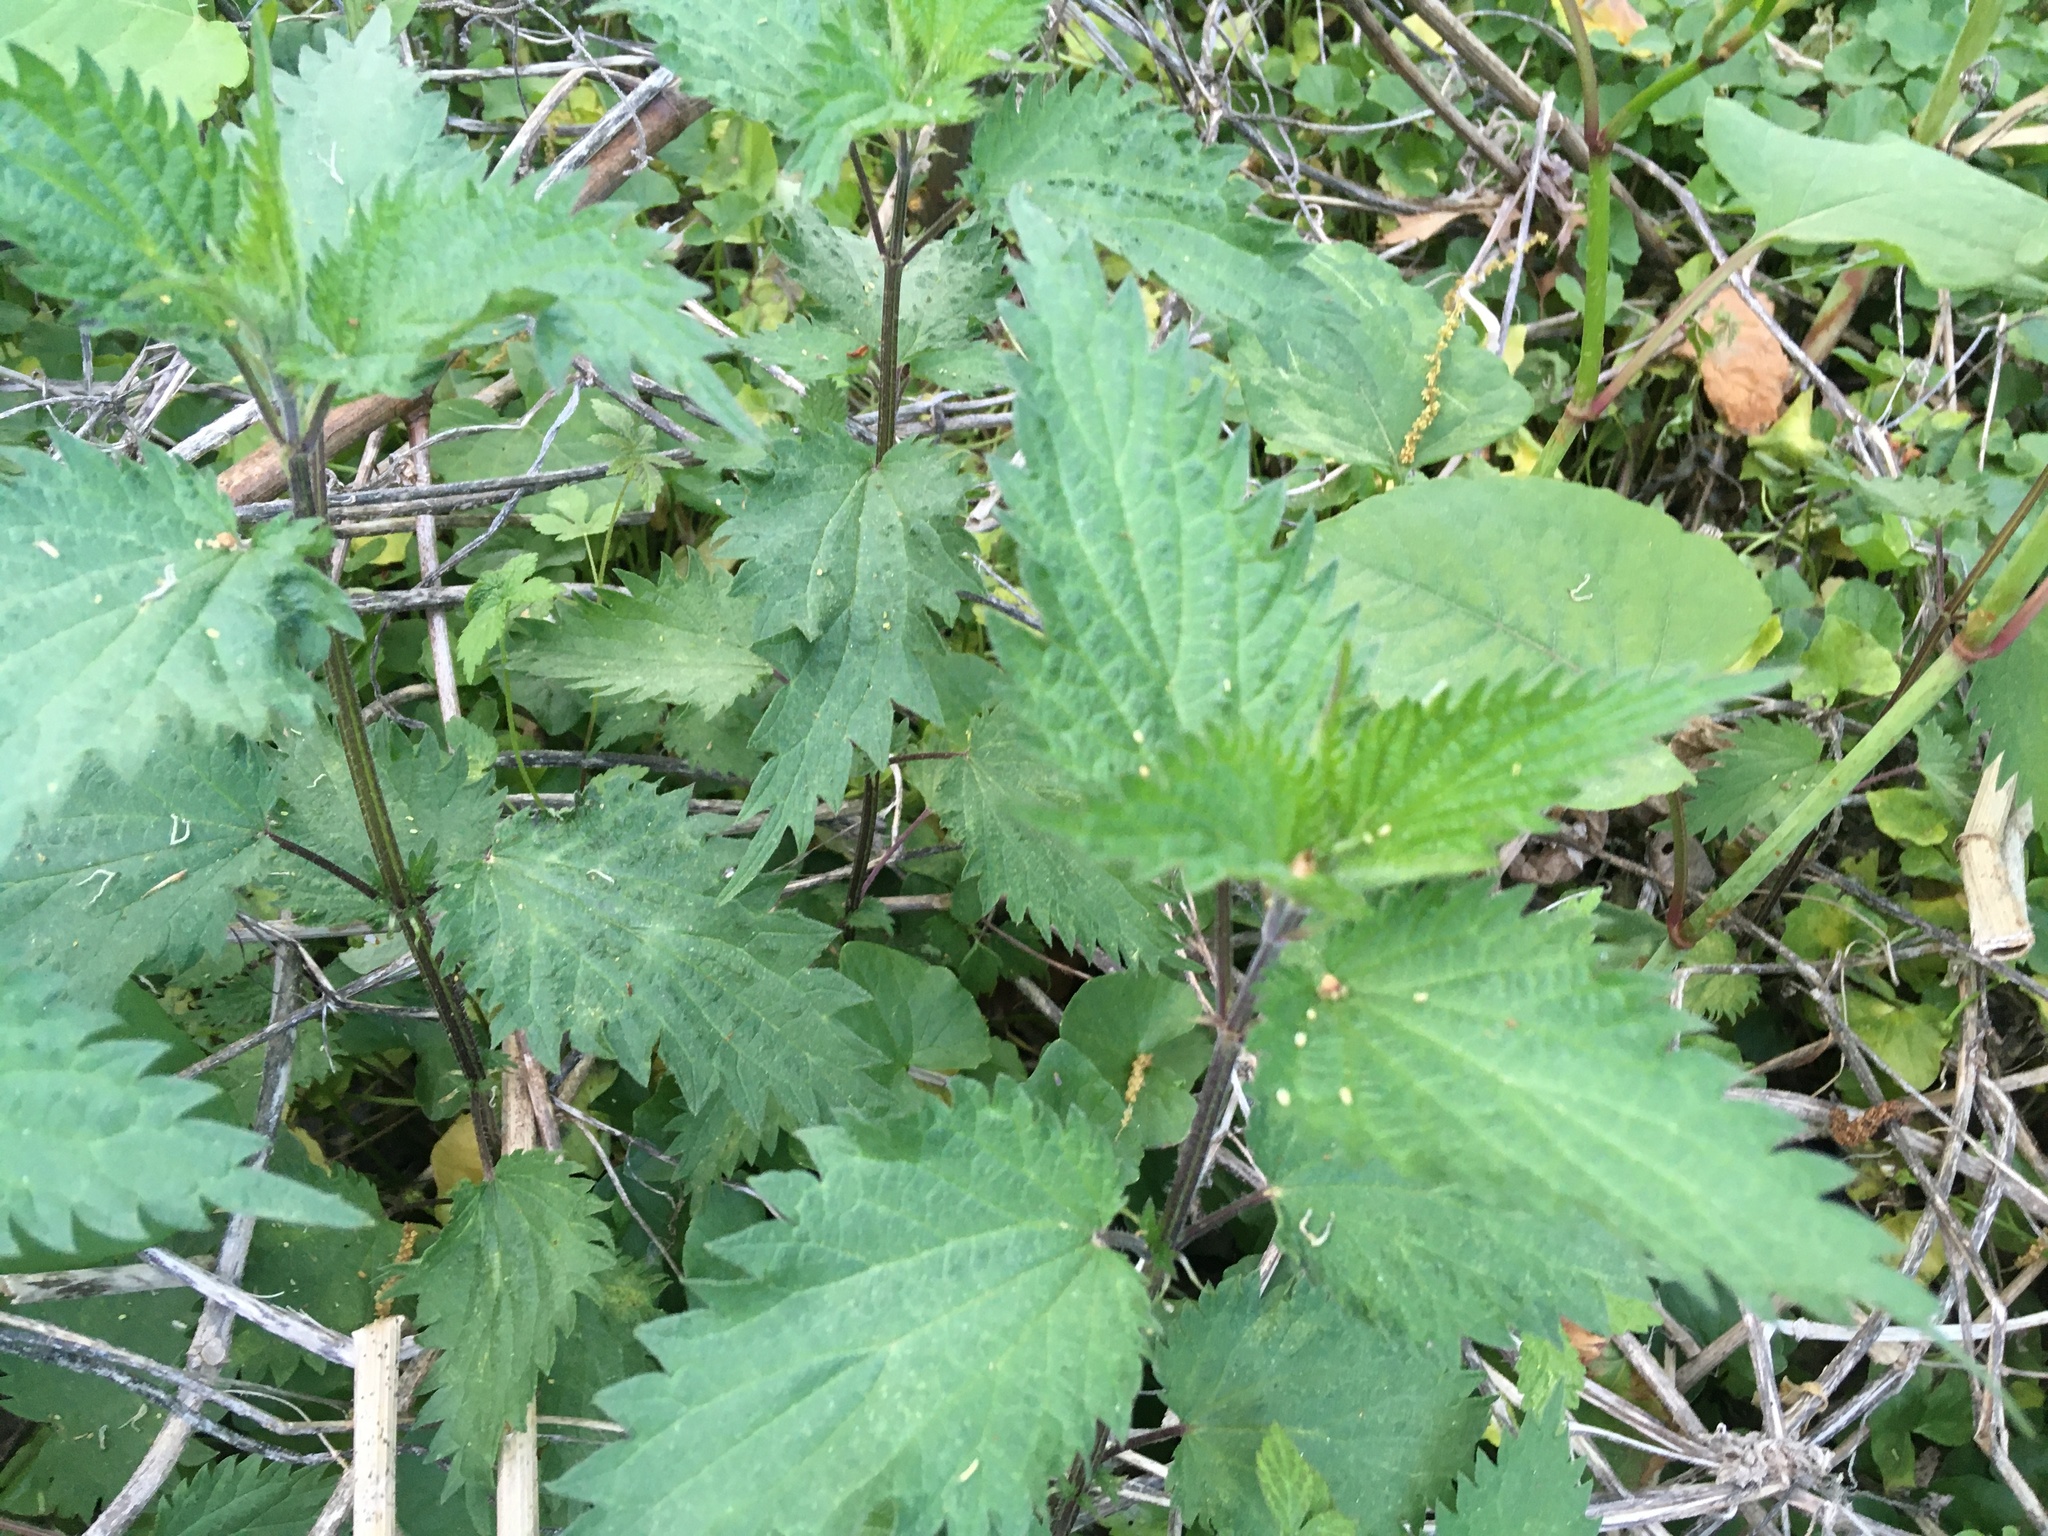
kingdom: Plantae
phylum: Tracheophyta
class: Magnoliopsida
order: Rosales
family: Urticaceae
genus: Urtica
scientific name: Urtica dioica
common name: Common nettle
